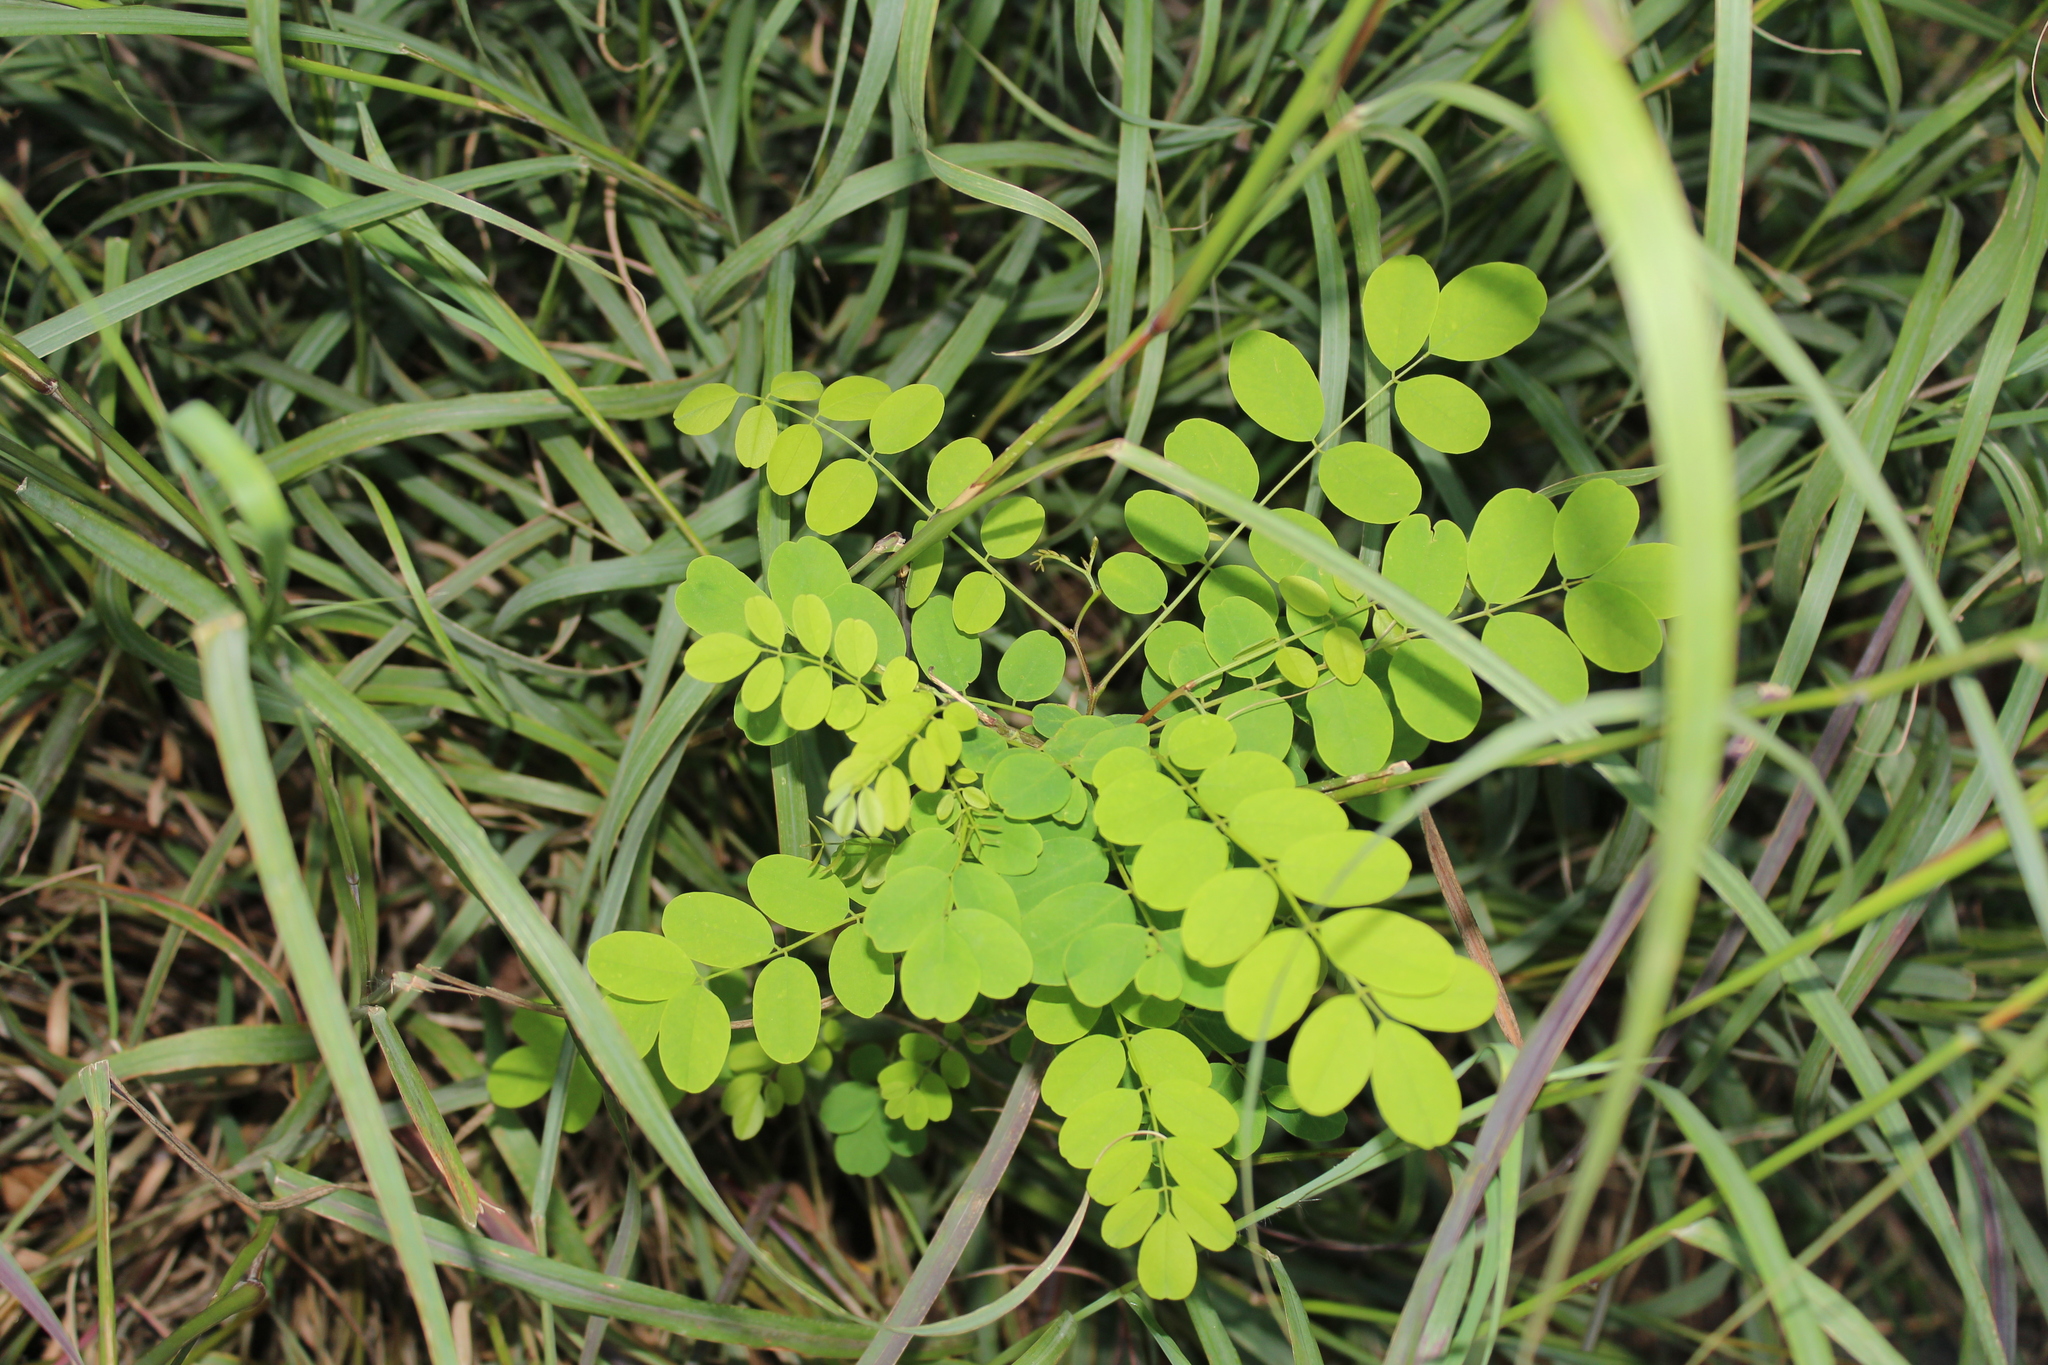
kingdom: Plantae
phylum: Tracheophyta
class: Magnoliopsida
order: Fabales
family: Fabaceae
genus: Robinia
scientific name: Robinia pseudoacacia
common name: Black locust
